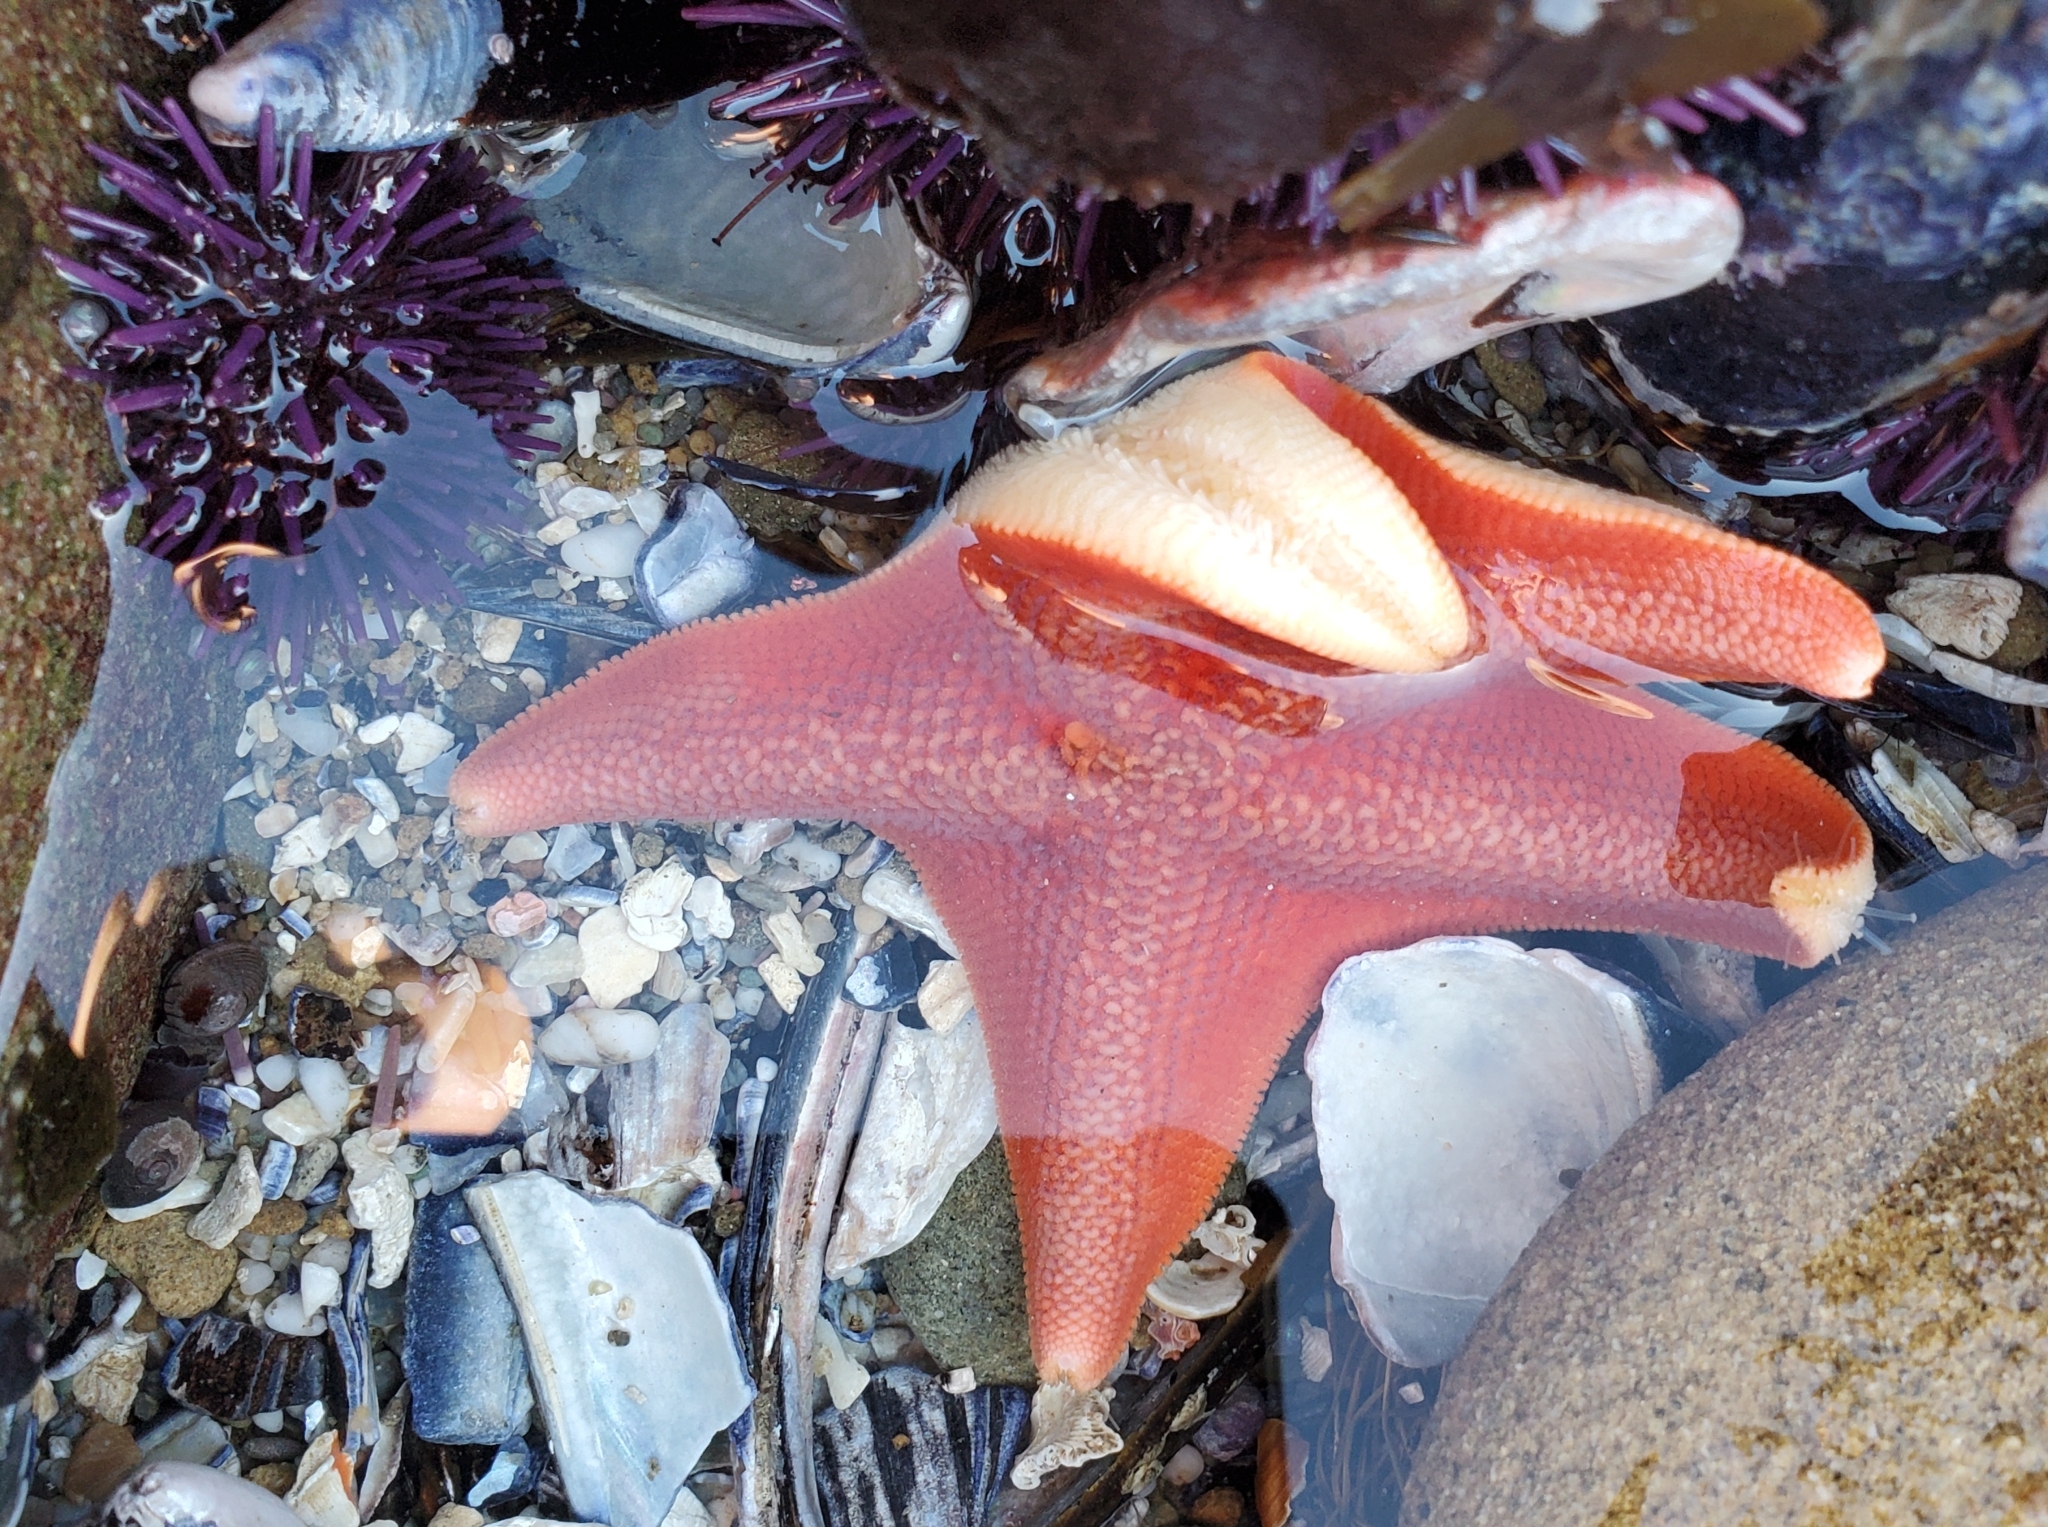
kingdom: Animalia
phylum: Echinodermata
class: Asteroidea
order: Valvatida
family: Asterinidae
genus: Patiria
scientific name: Patiria miniata
